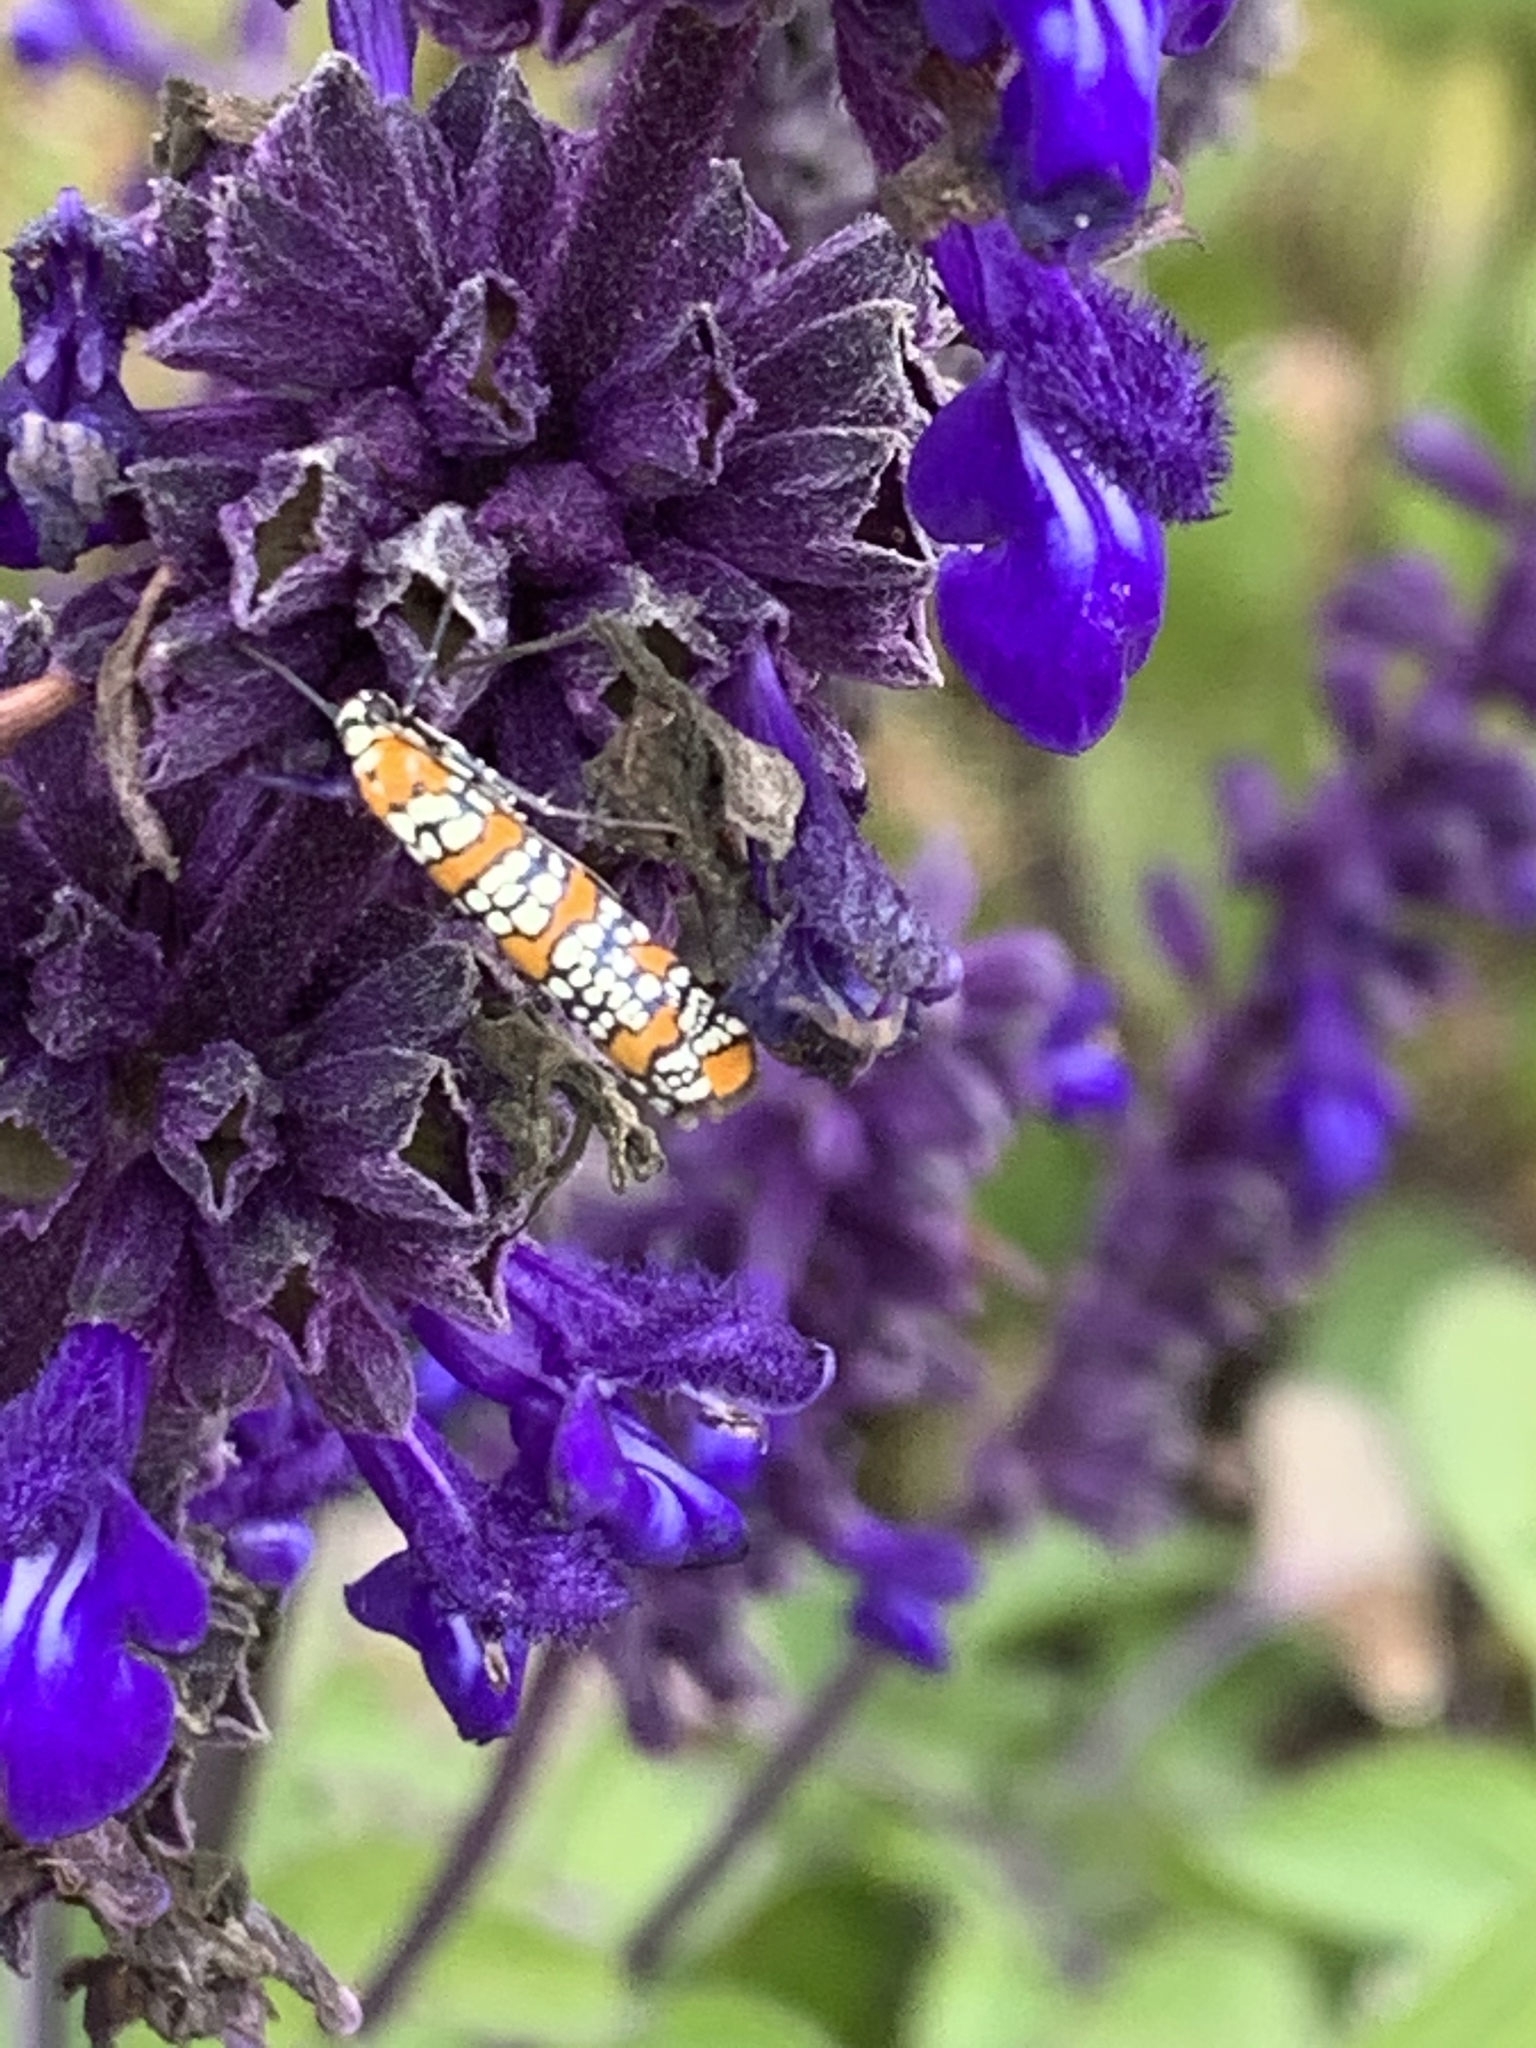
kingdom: Animalia
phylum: Arthropoda
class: Insecta
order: Lepidoptera
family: Attevidae
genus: Atteva
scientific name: Atteva punctella
